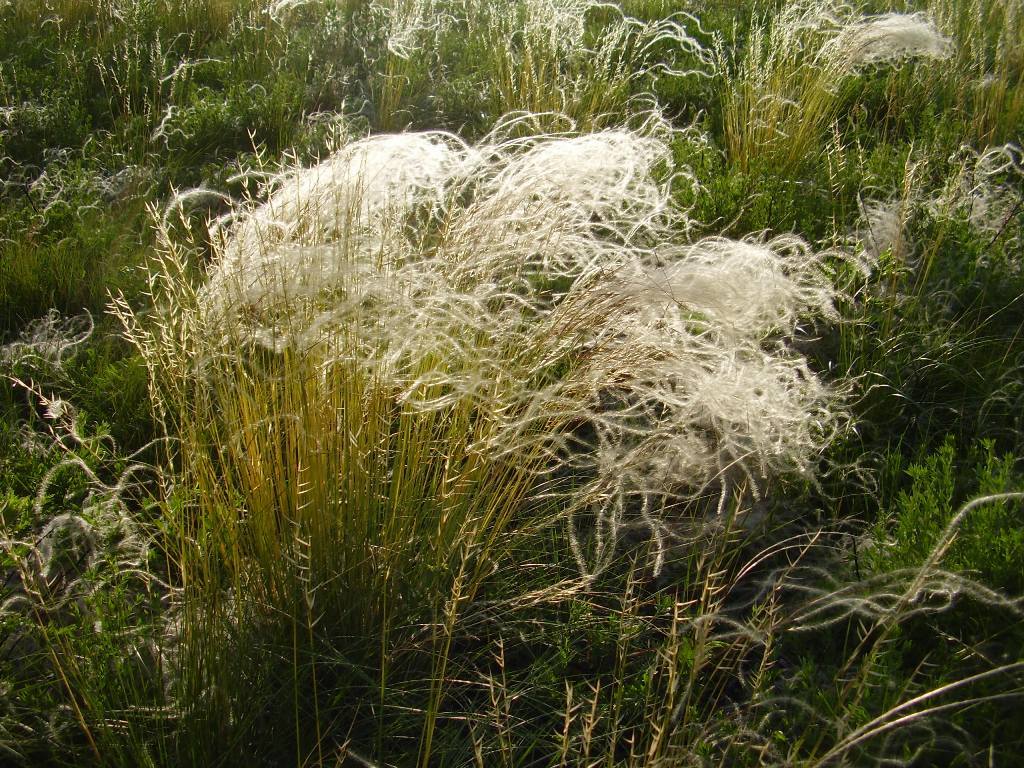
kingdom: Plantae
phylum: Tracheophyta
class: Liliopsida
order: Poales
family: Poaceae
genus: Stipa
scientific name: Stipa pennata
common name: European feather grass
